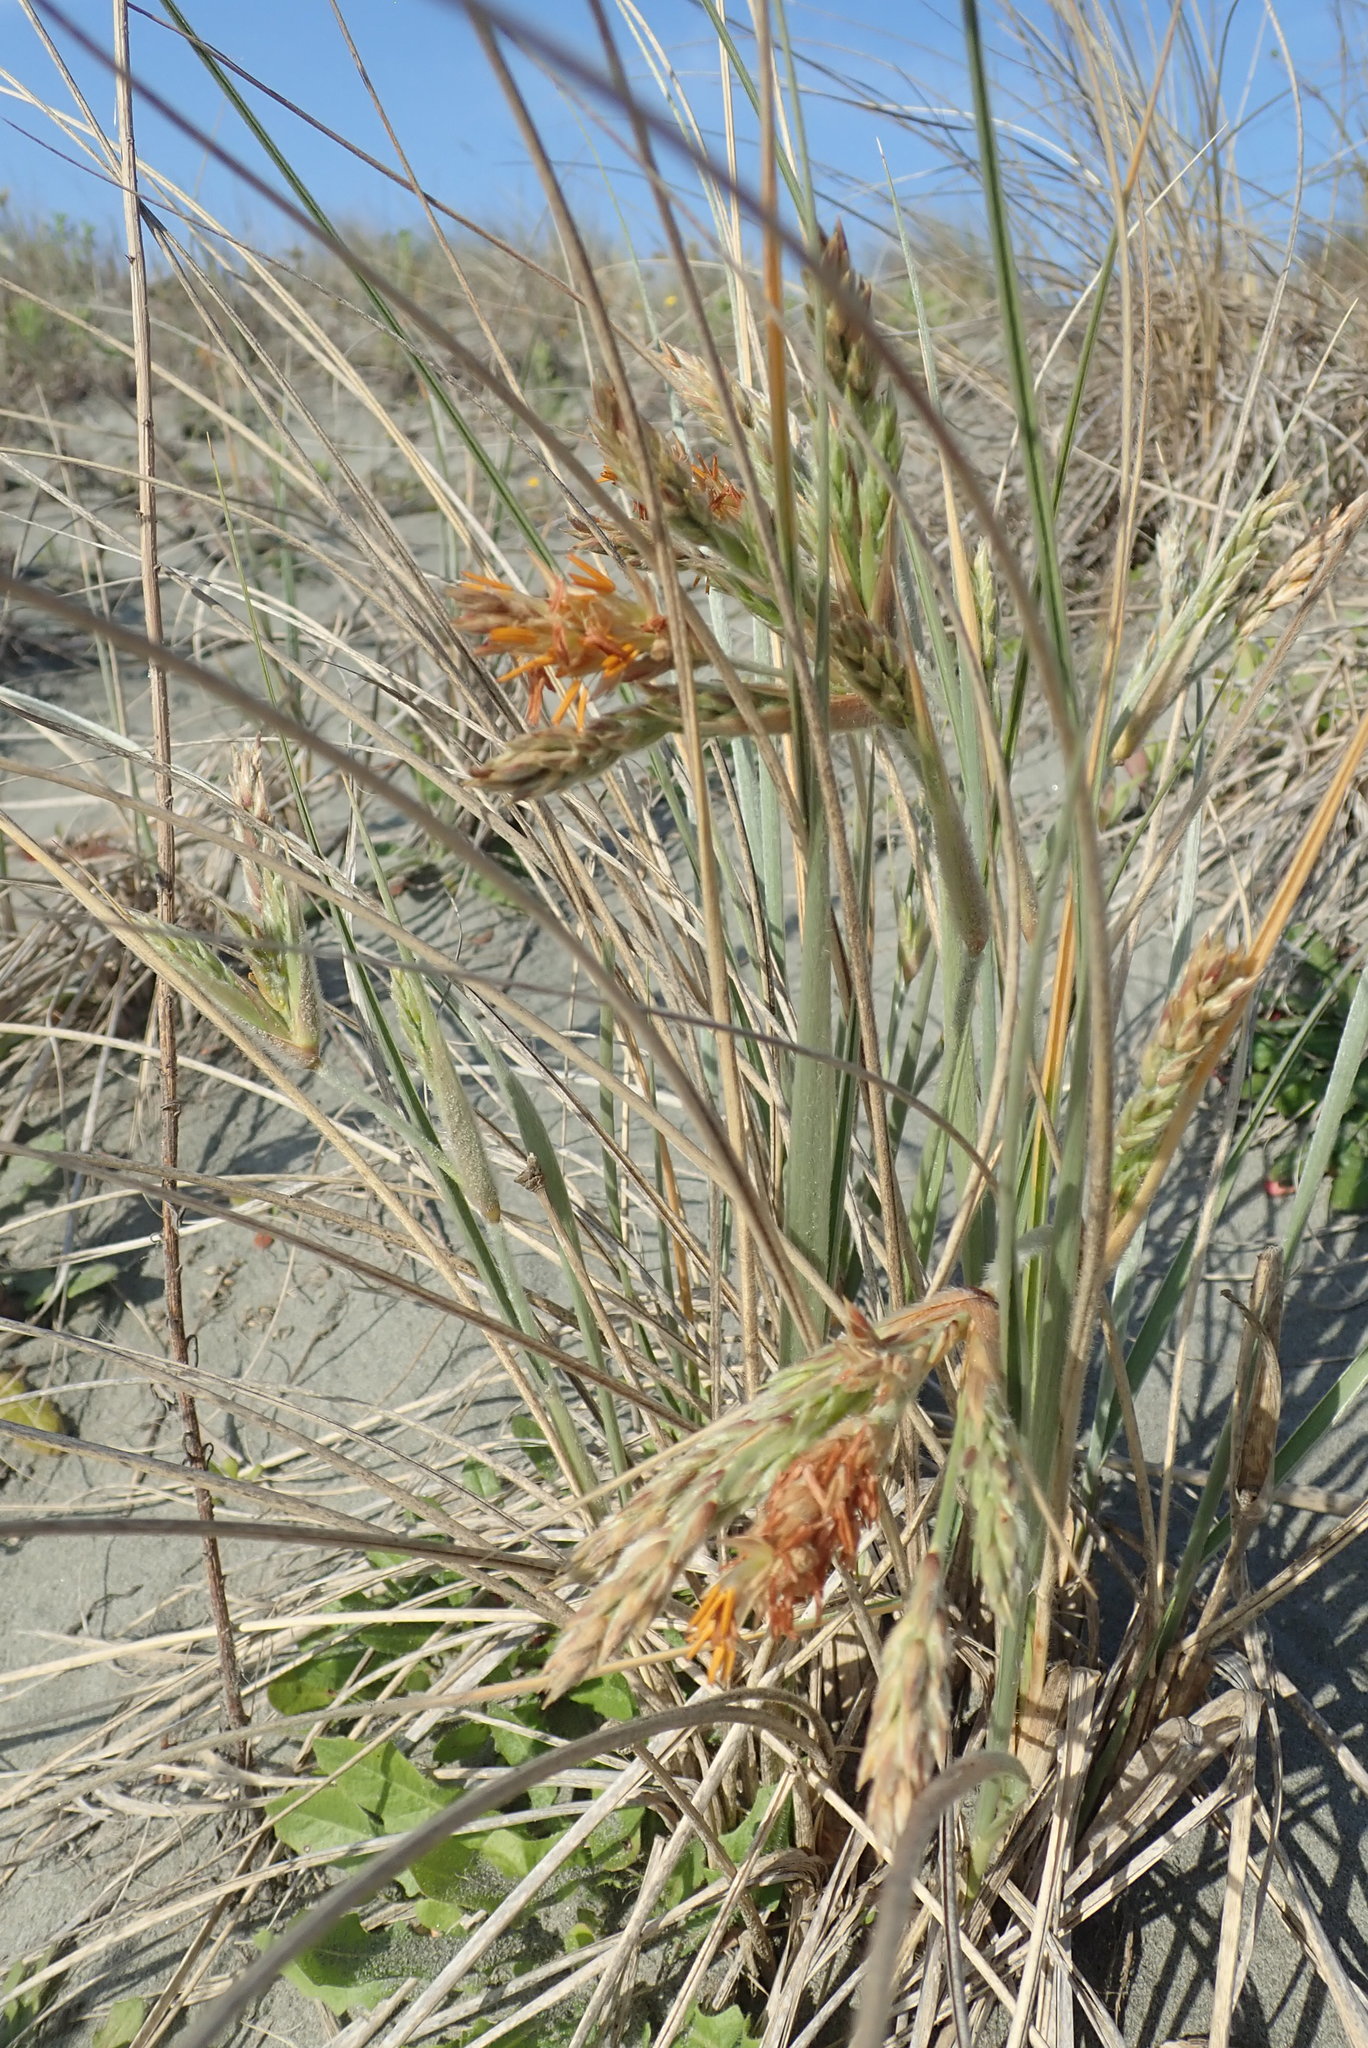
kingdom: Plantae
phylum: Tracheophyta
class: Liliopsida
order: Poales
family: Poaceae
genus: Spinifex
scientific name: Spinifex sericeus
